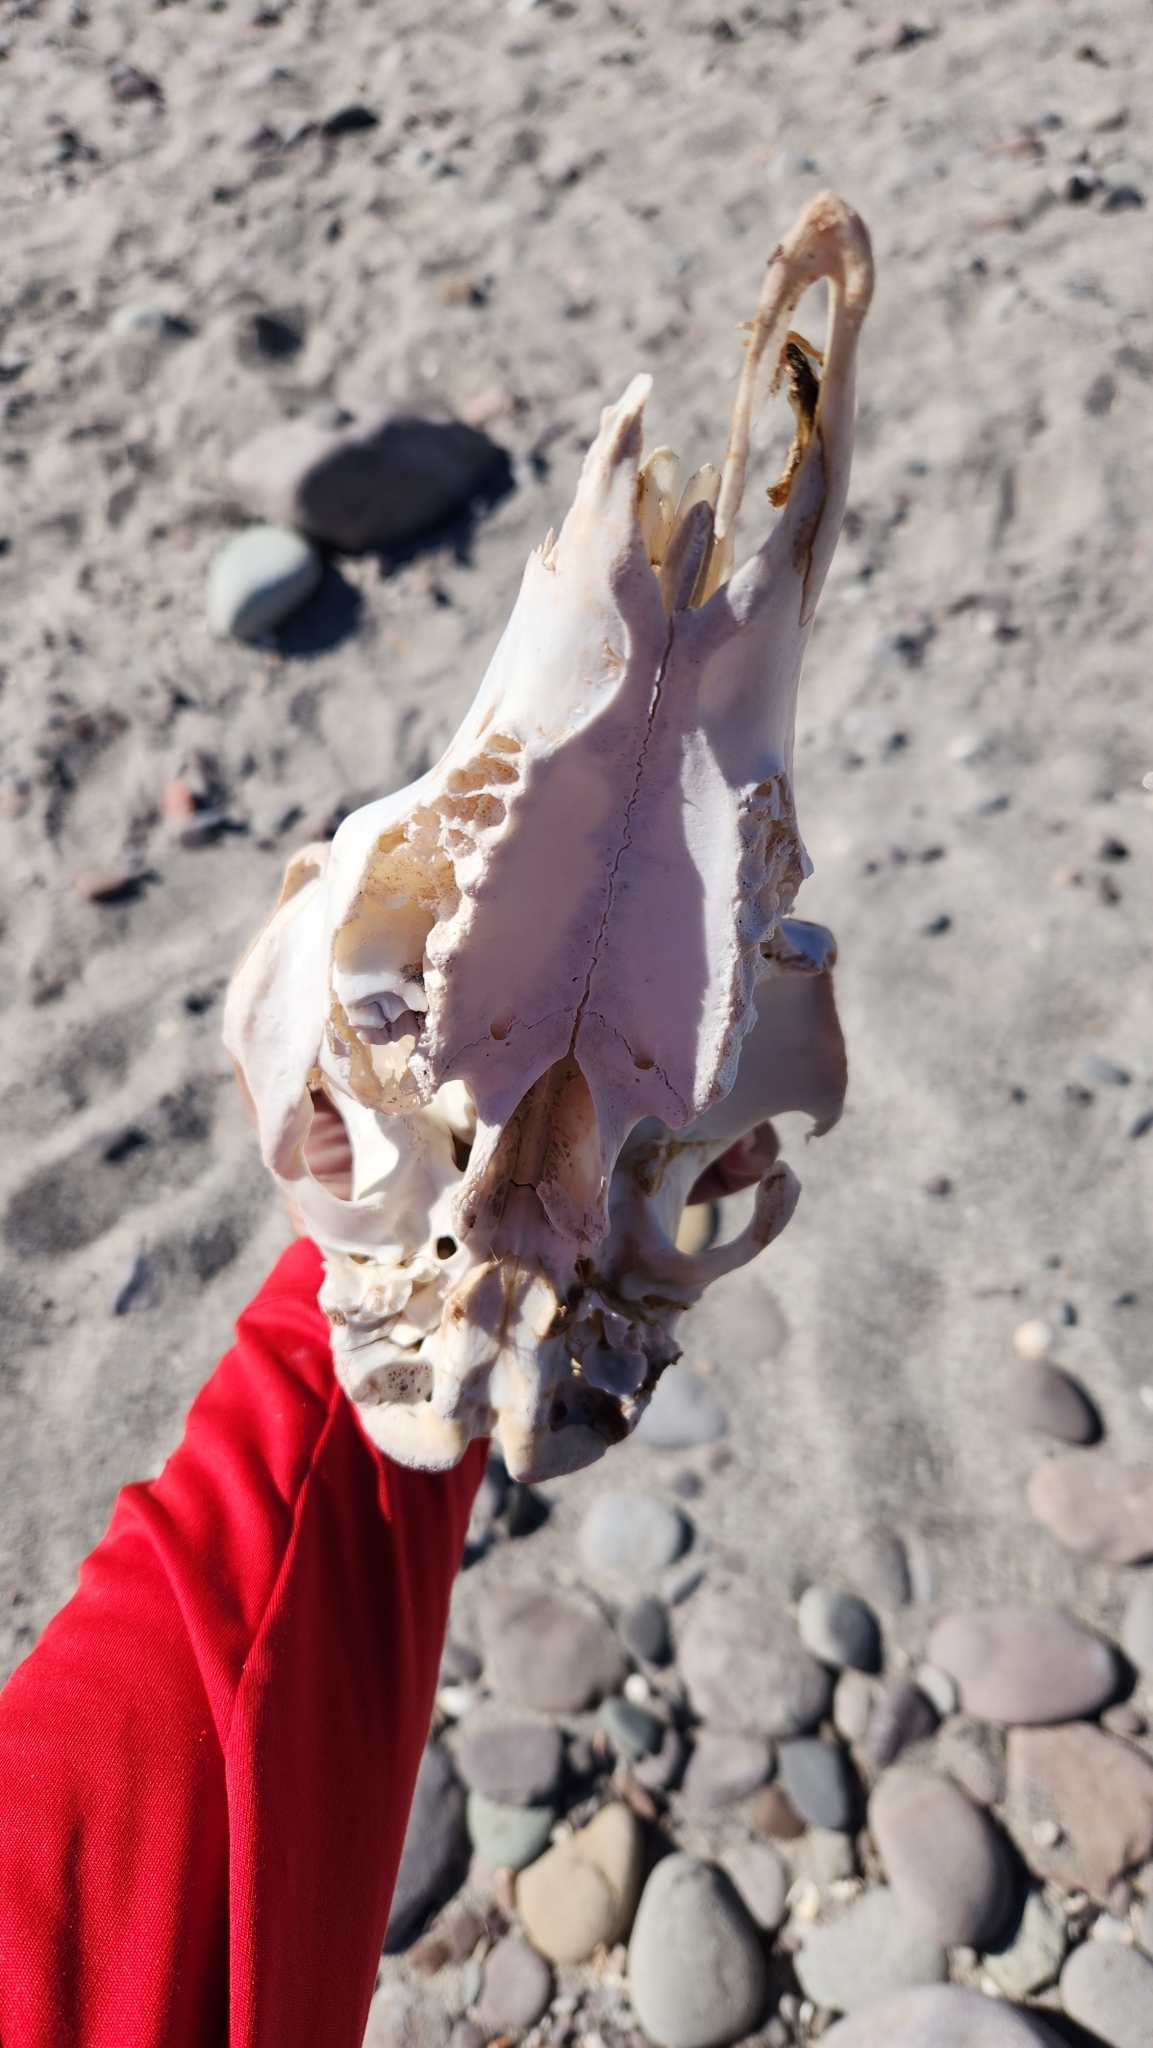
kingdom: Animalia
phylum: Chordata
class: Mammalia
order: Artiodactyla
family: Bovidae
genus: Ovis
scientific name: Ovis canadensis
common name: Bighorn sheep
